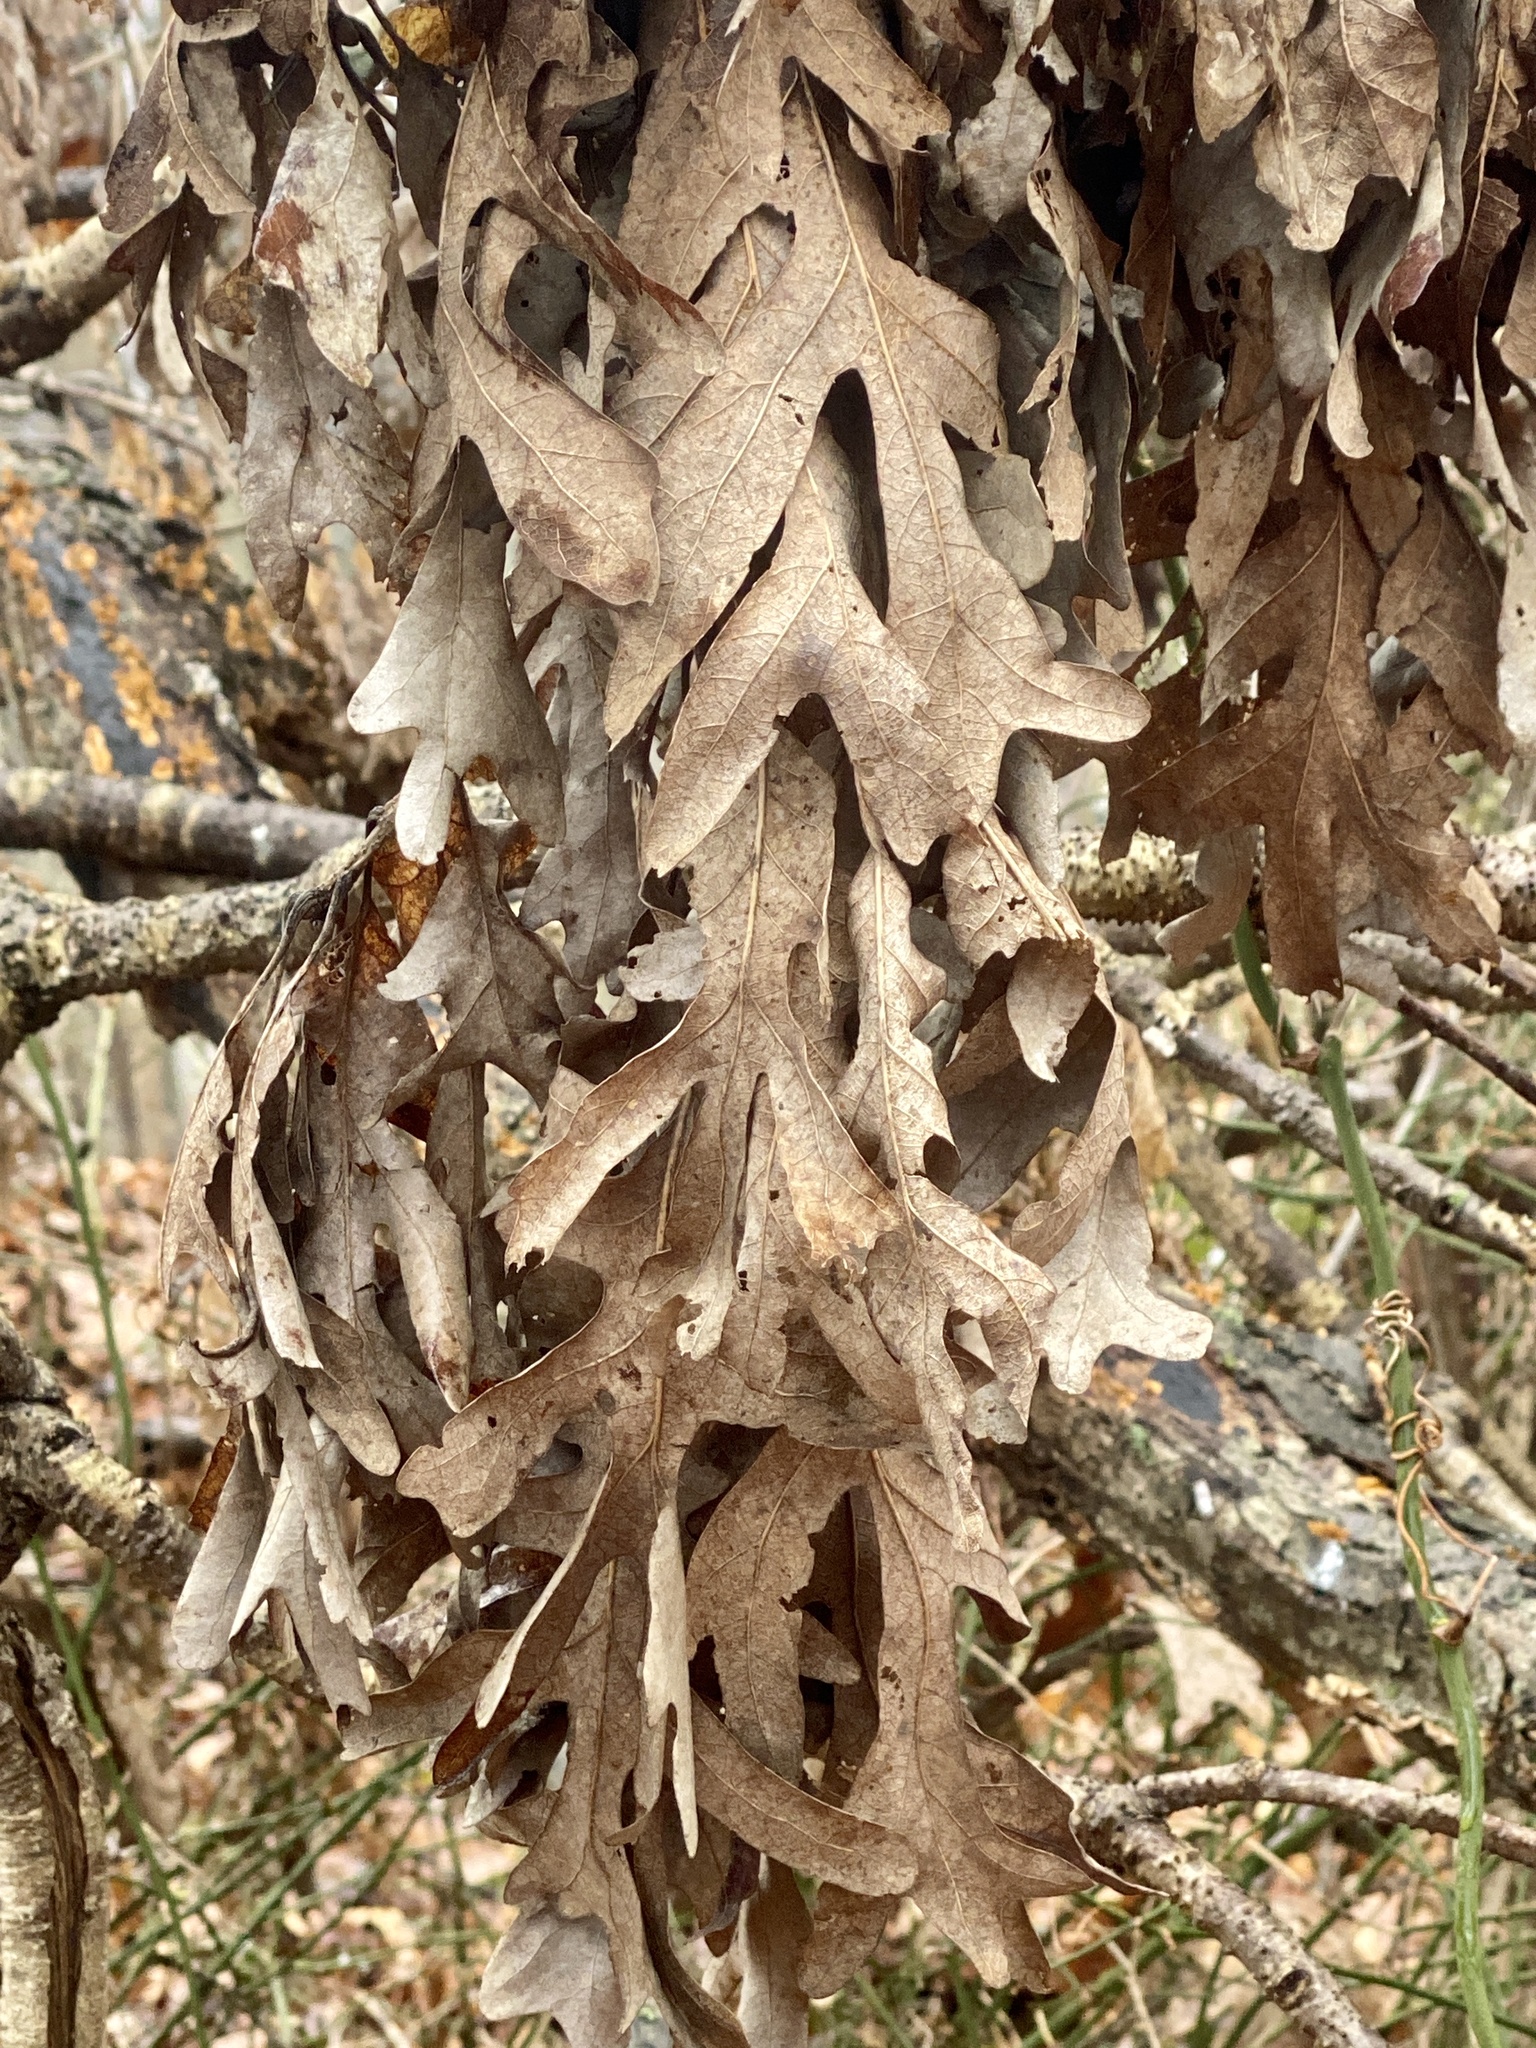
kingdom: Plantae
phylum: Tracheophyta
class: Magnoliopsida
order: Fagales
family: Fagaceae
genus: Quercus
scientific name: Quercus alba
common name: White oak
